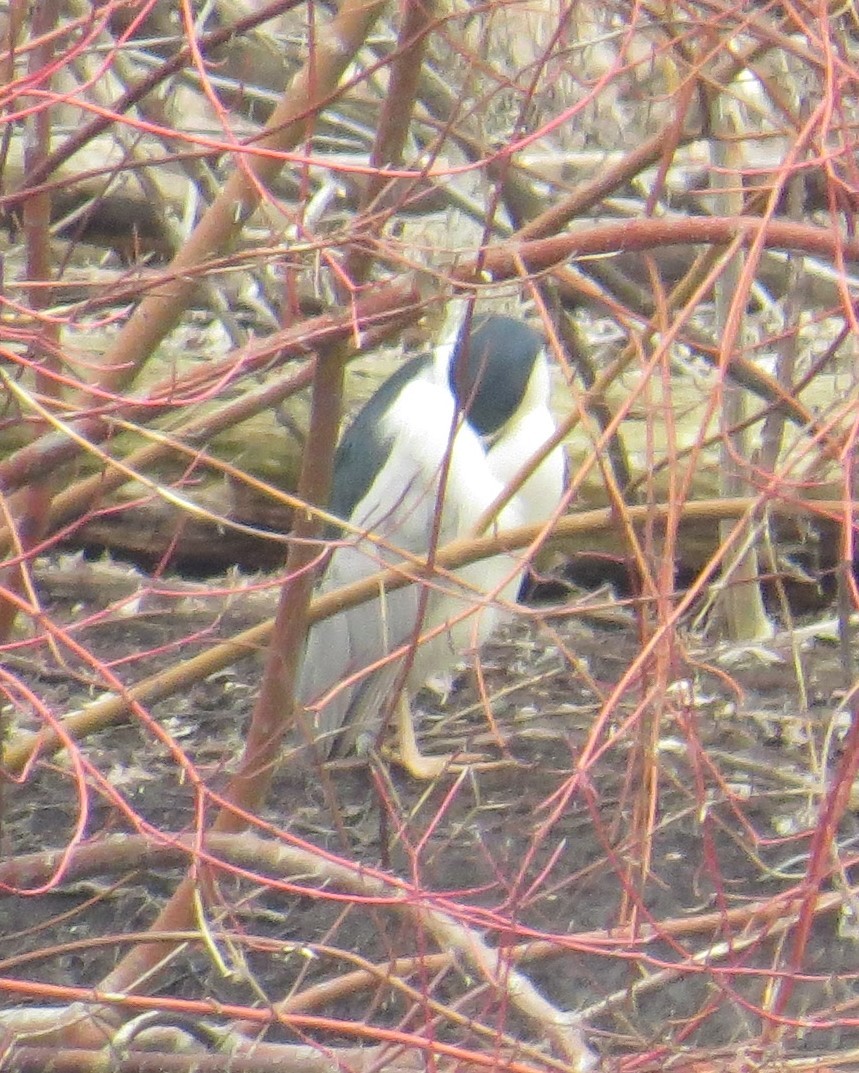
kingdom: Animalia
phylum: Chordata
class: Aves
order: Pelecaniformes
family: Ardeidae
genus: Nycticorax
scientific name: Nycticorax nycticorax
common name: Black-crowned night heron
